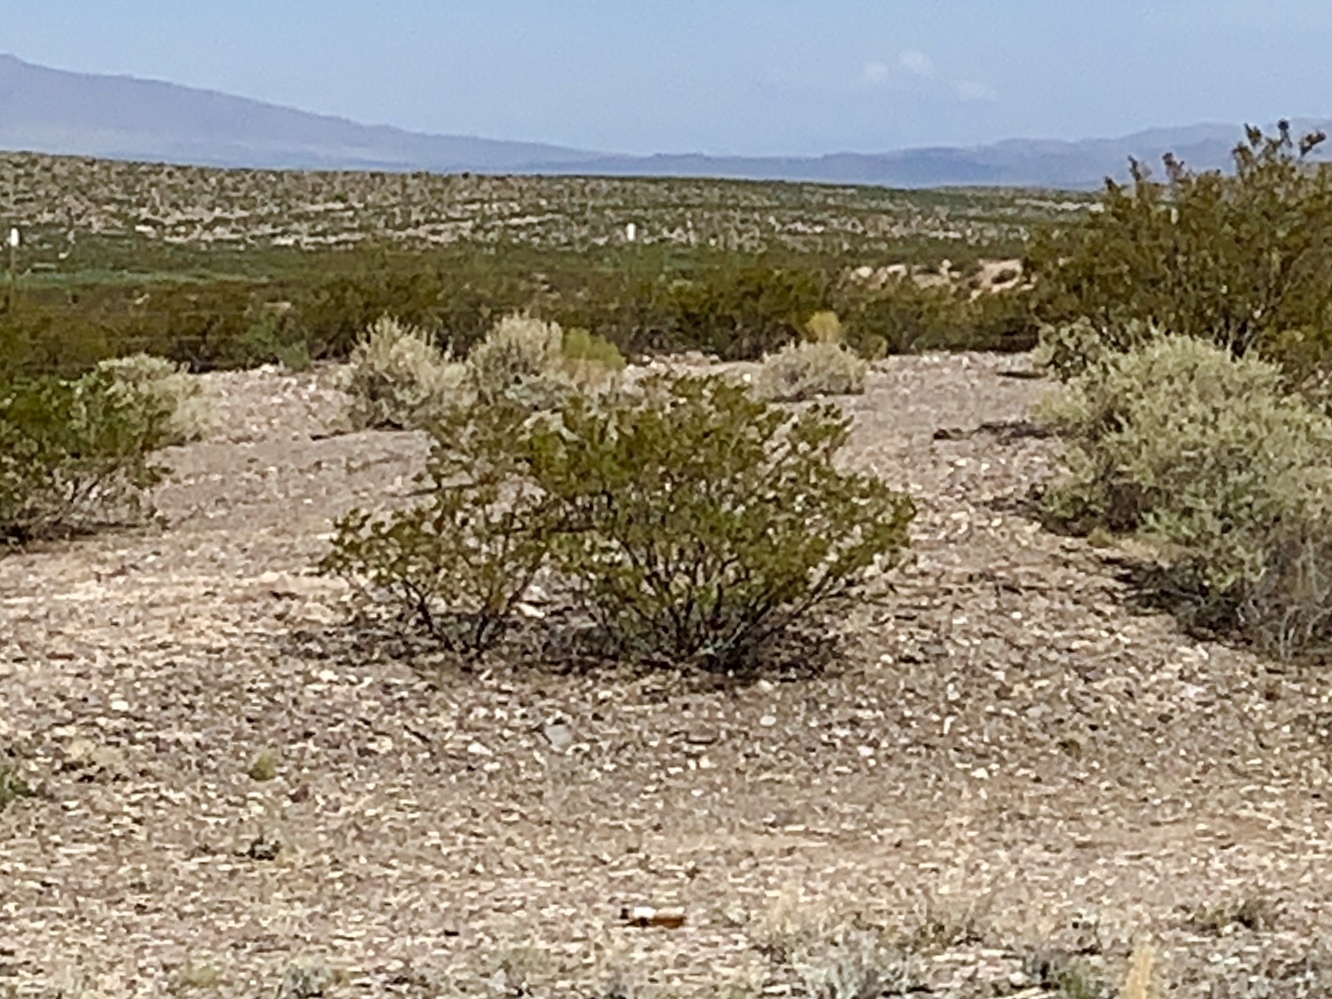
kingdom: Plantae
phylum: Tracheophyta
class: Magnoliopsida
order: Zygophyllales
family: Zygophyllaceae
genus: Larrea
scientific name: Larrea tridentata
